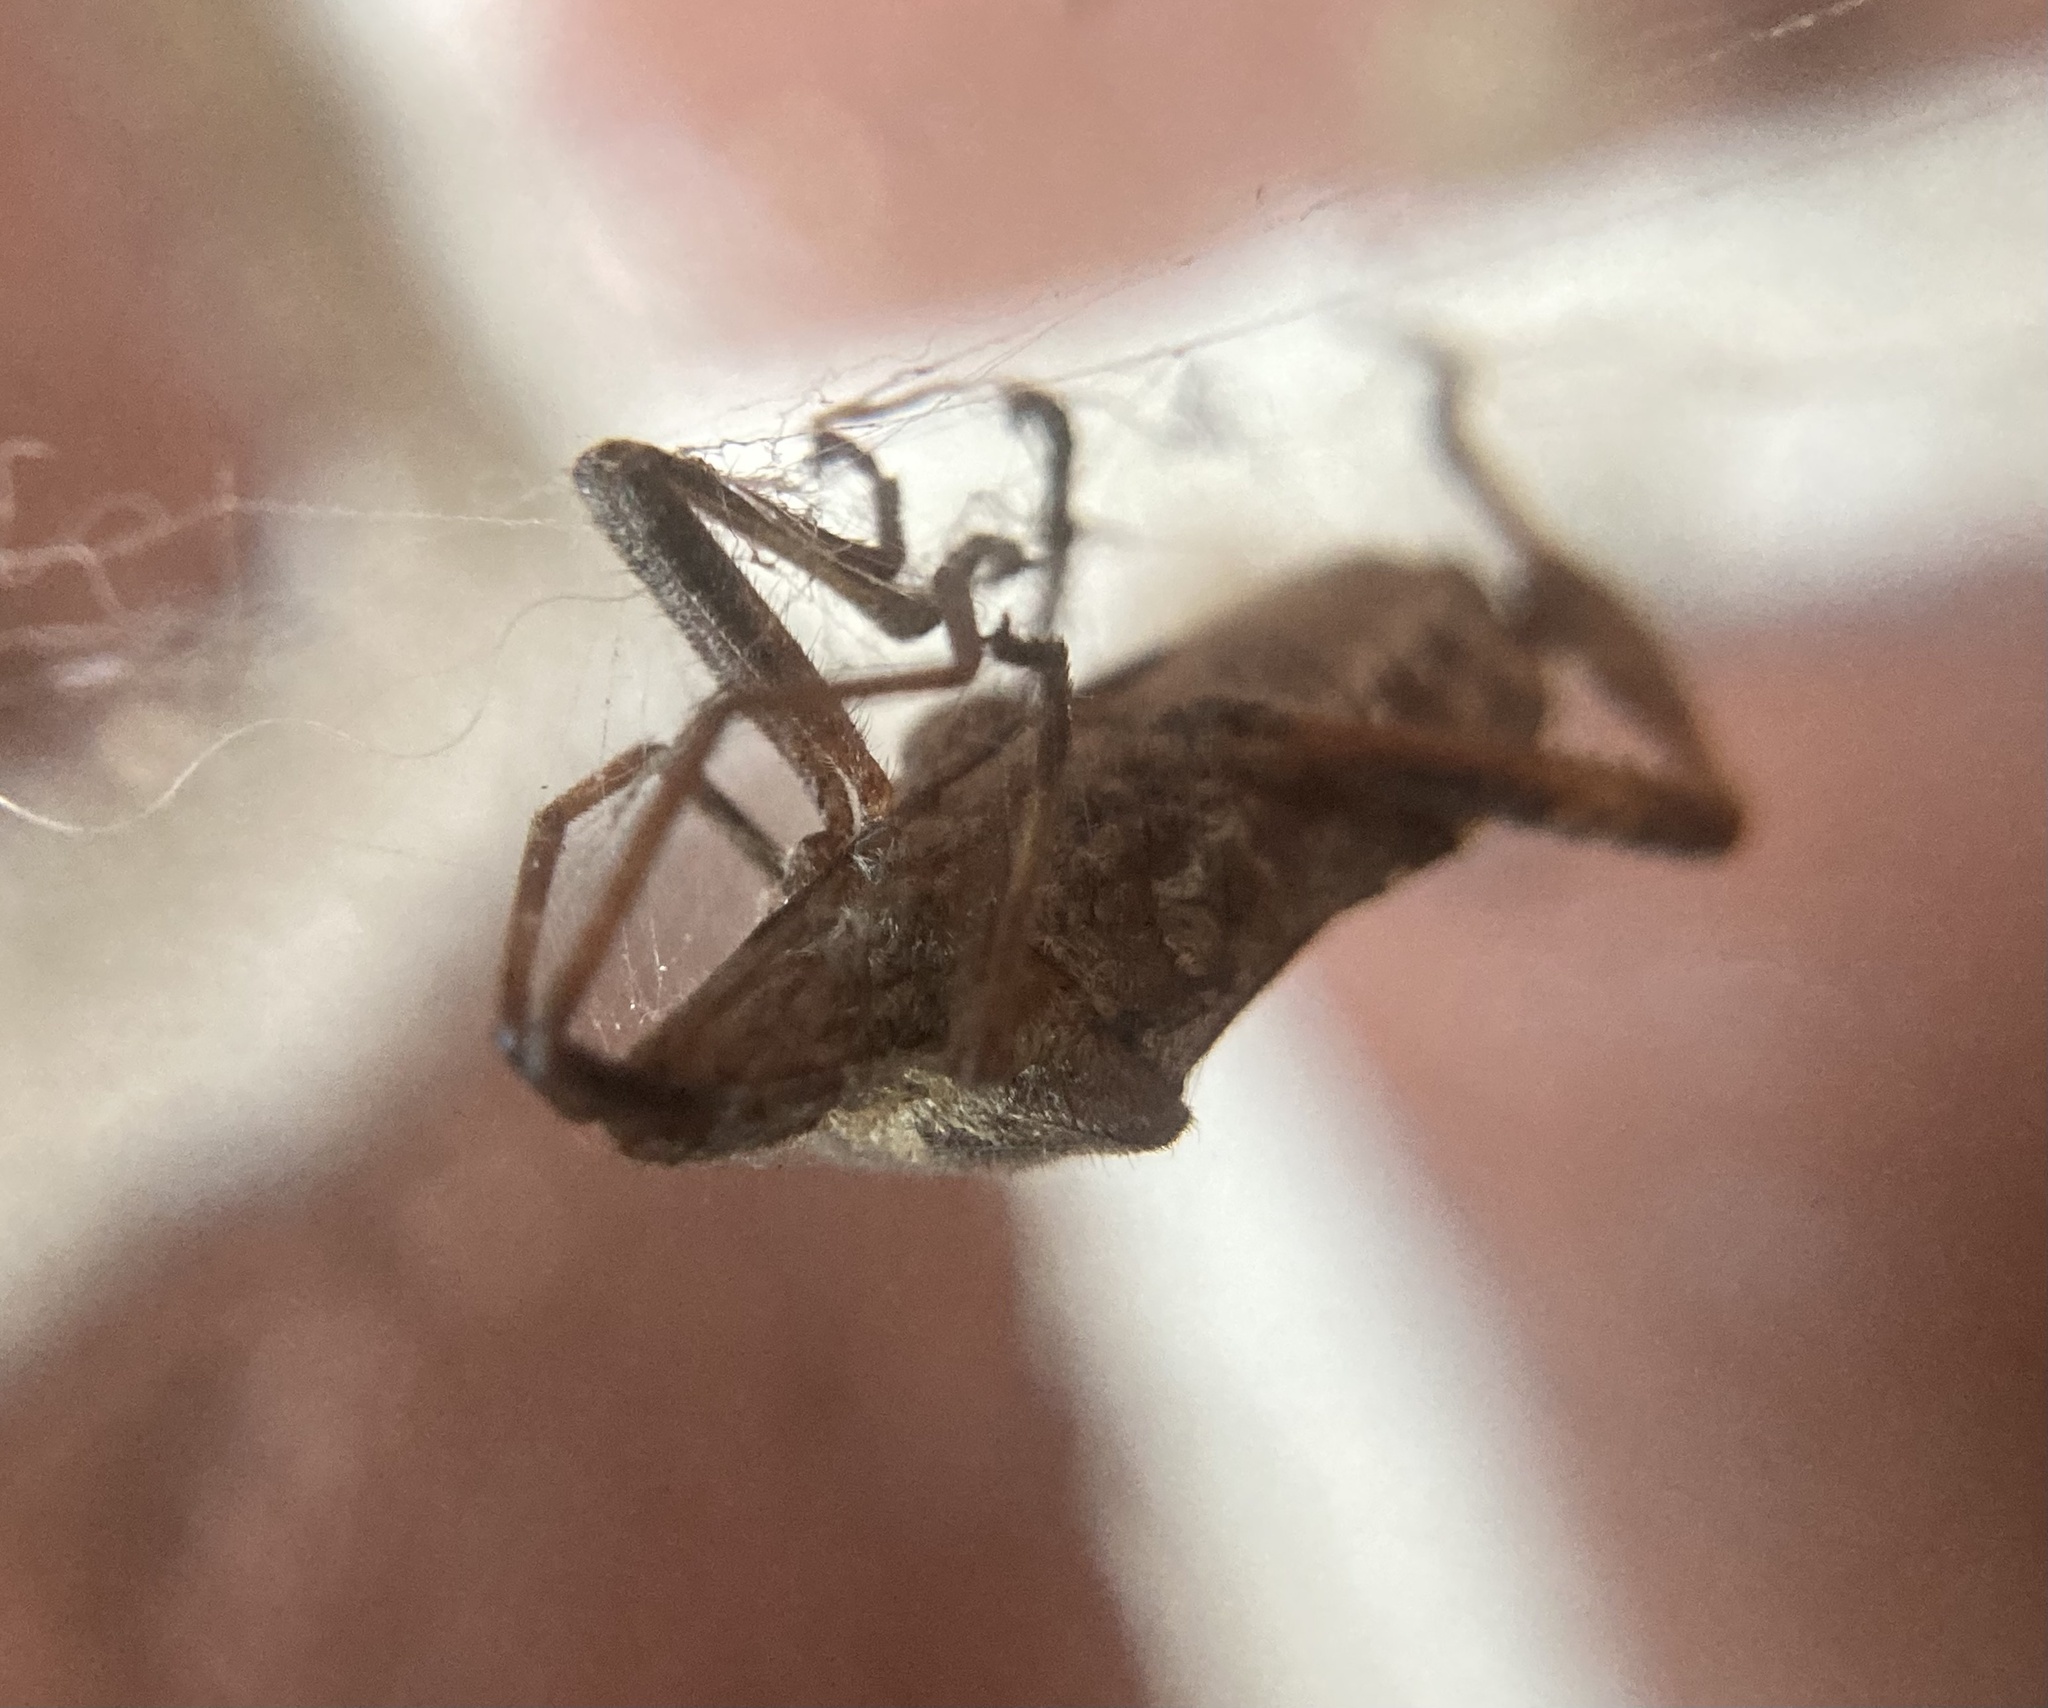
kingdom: Animalia
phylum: Arthropoda
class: Insecta
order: Hemiptera
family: Coreidae
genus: Leptoglossus
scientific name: Leptoglossus occidentalis
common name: Western conifer-seed bug
